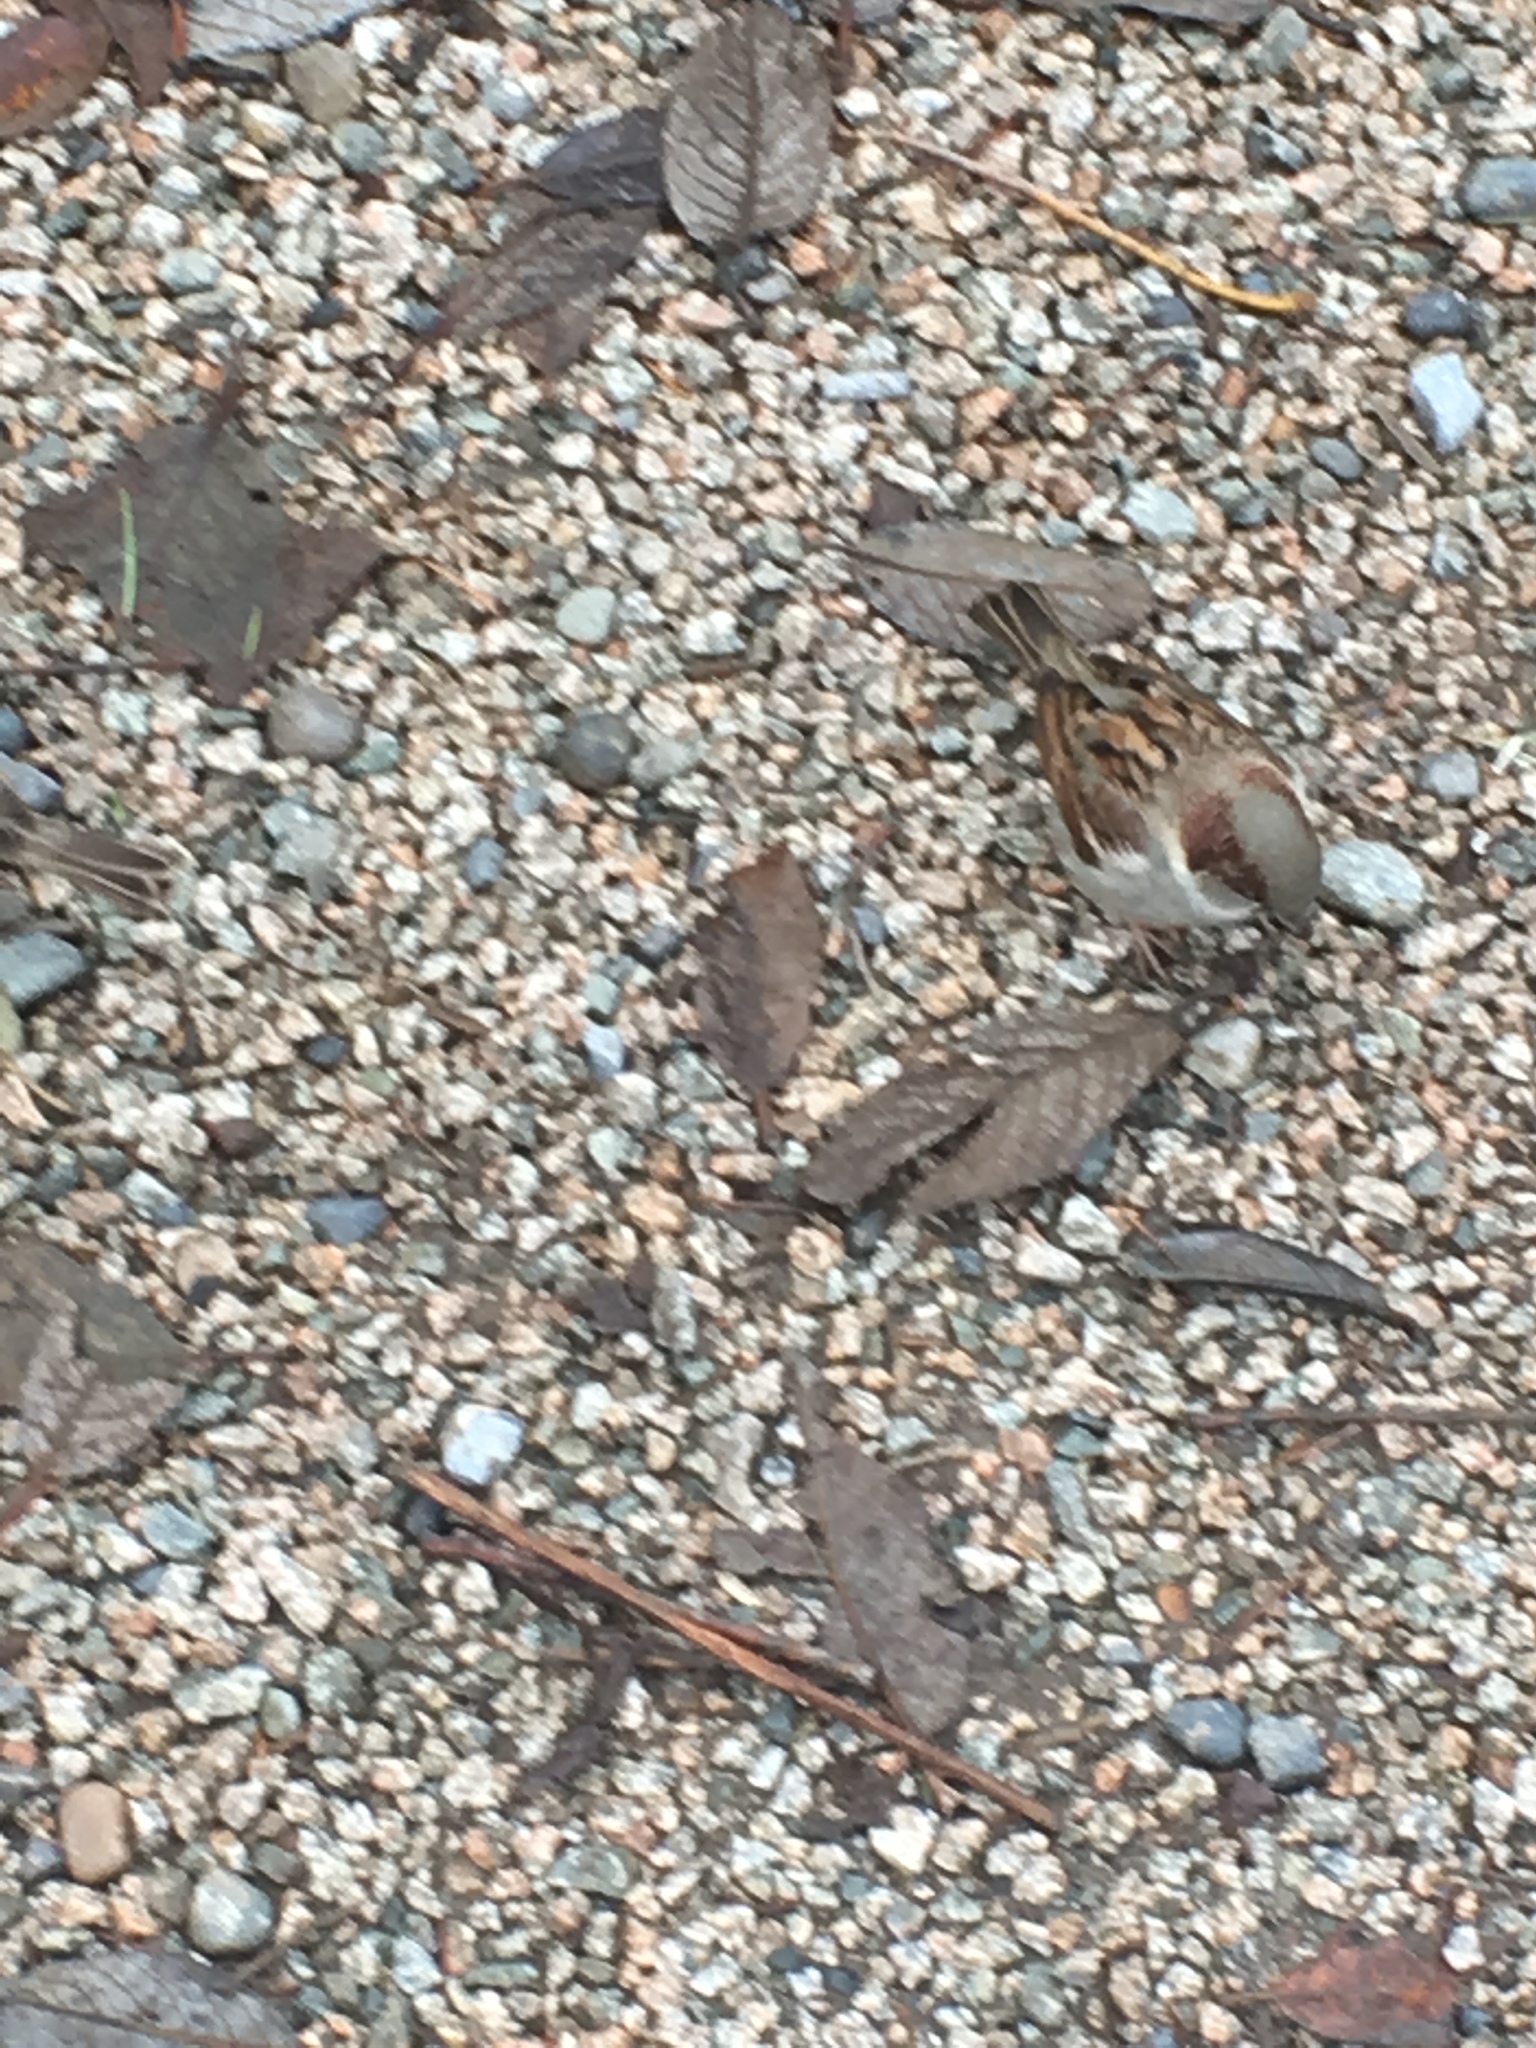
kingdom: Animalia
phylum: Chordata
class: Aves
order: Passeriformes
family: Passeridae
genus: Passer
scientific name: Passer domesticus
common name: House sparrow
